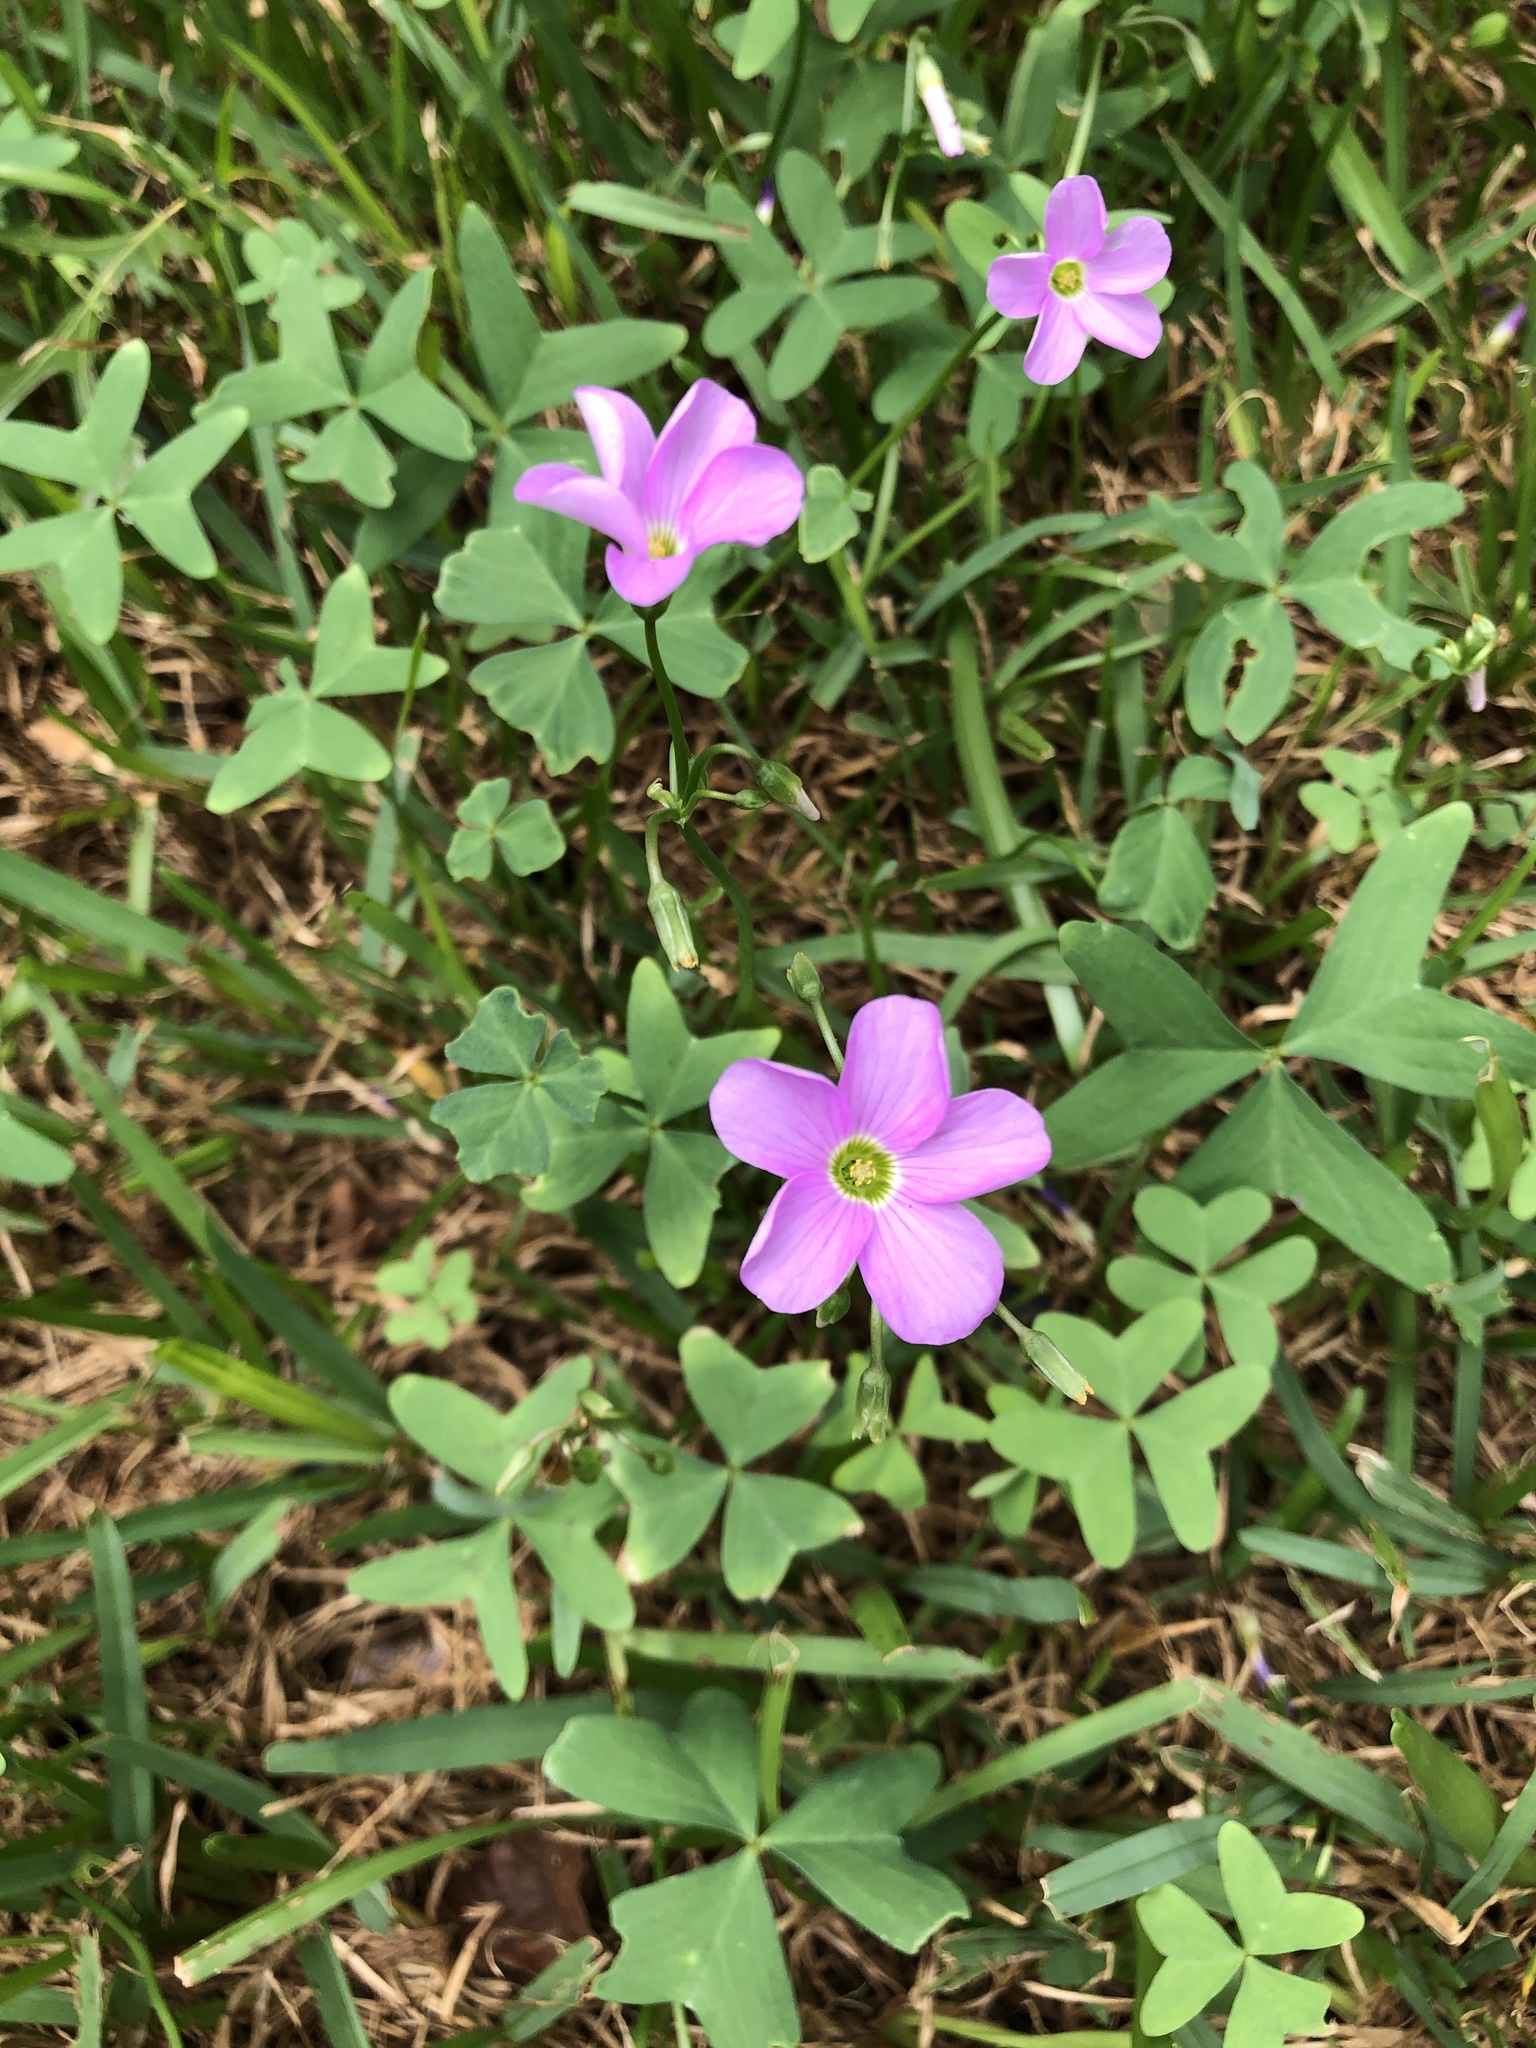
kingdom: Plantae
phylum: Tracheophyta
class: Magnoliopsida
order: Oxalidales
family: Oxalidaceae
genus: Oxalis
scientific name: Oxalis drummondii
